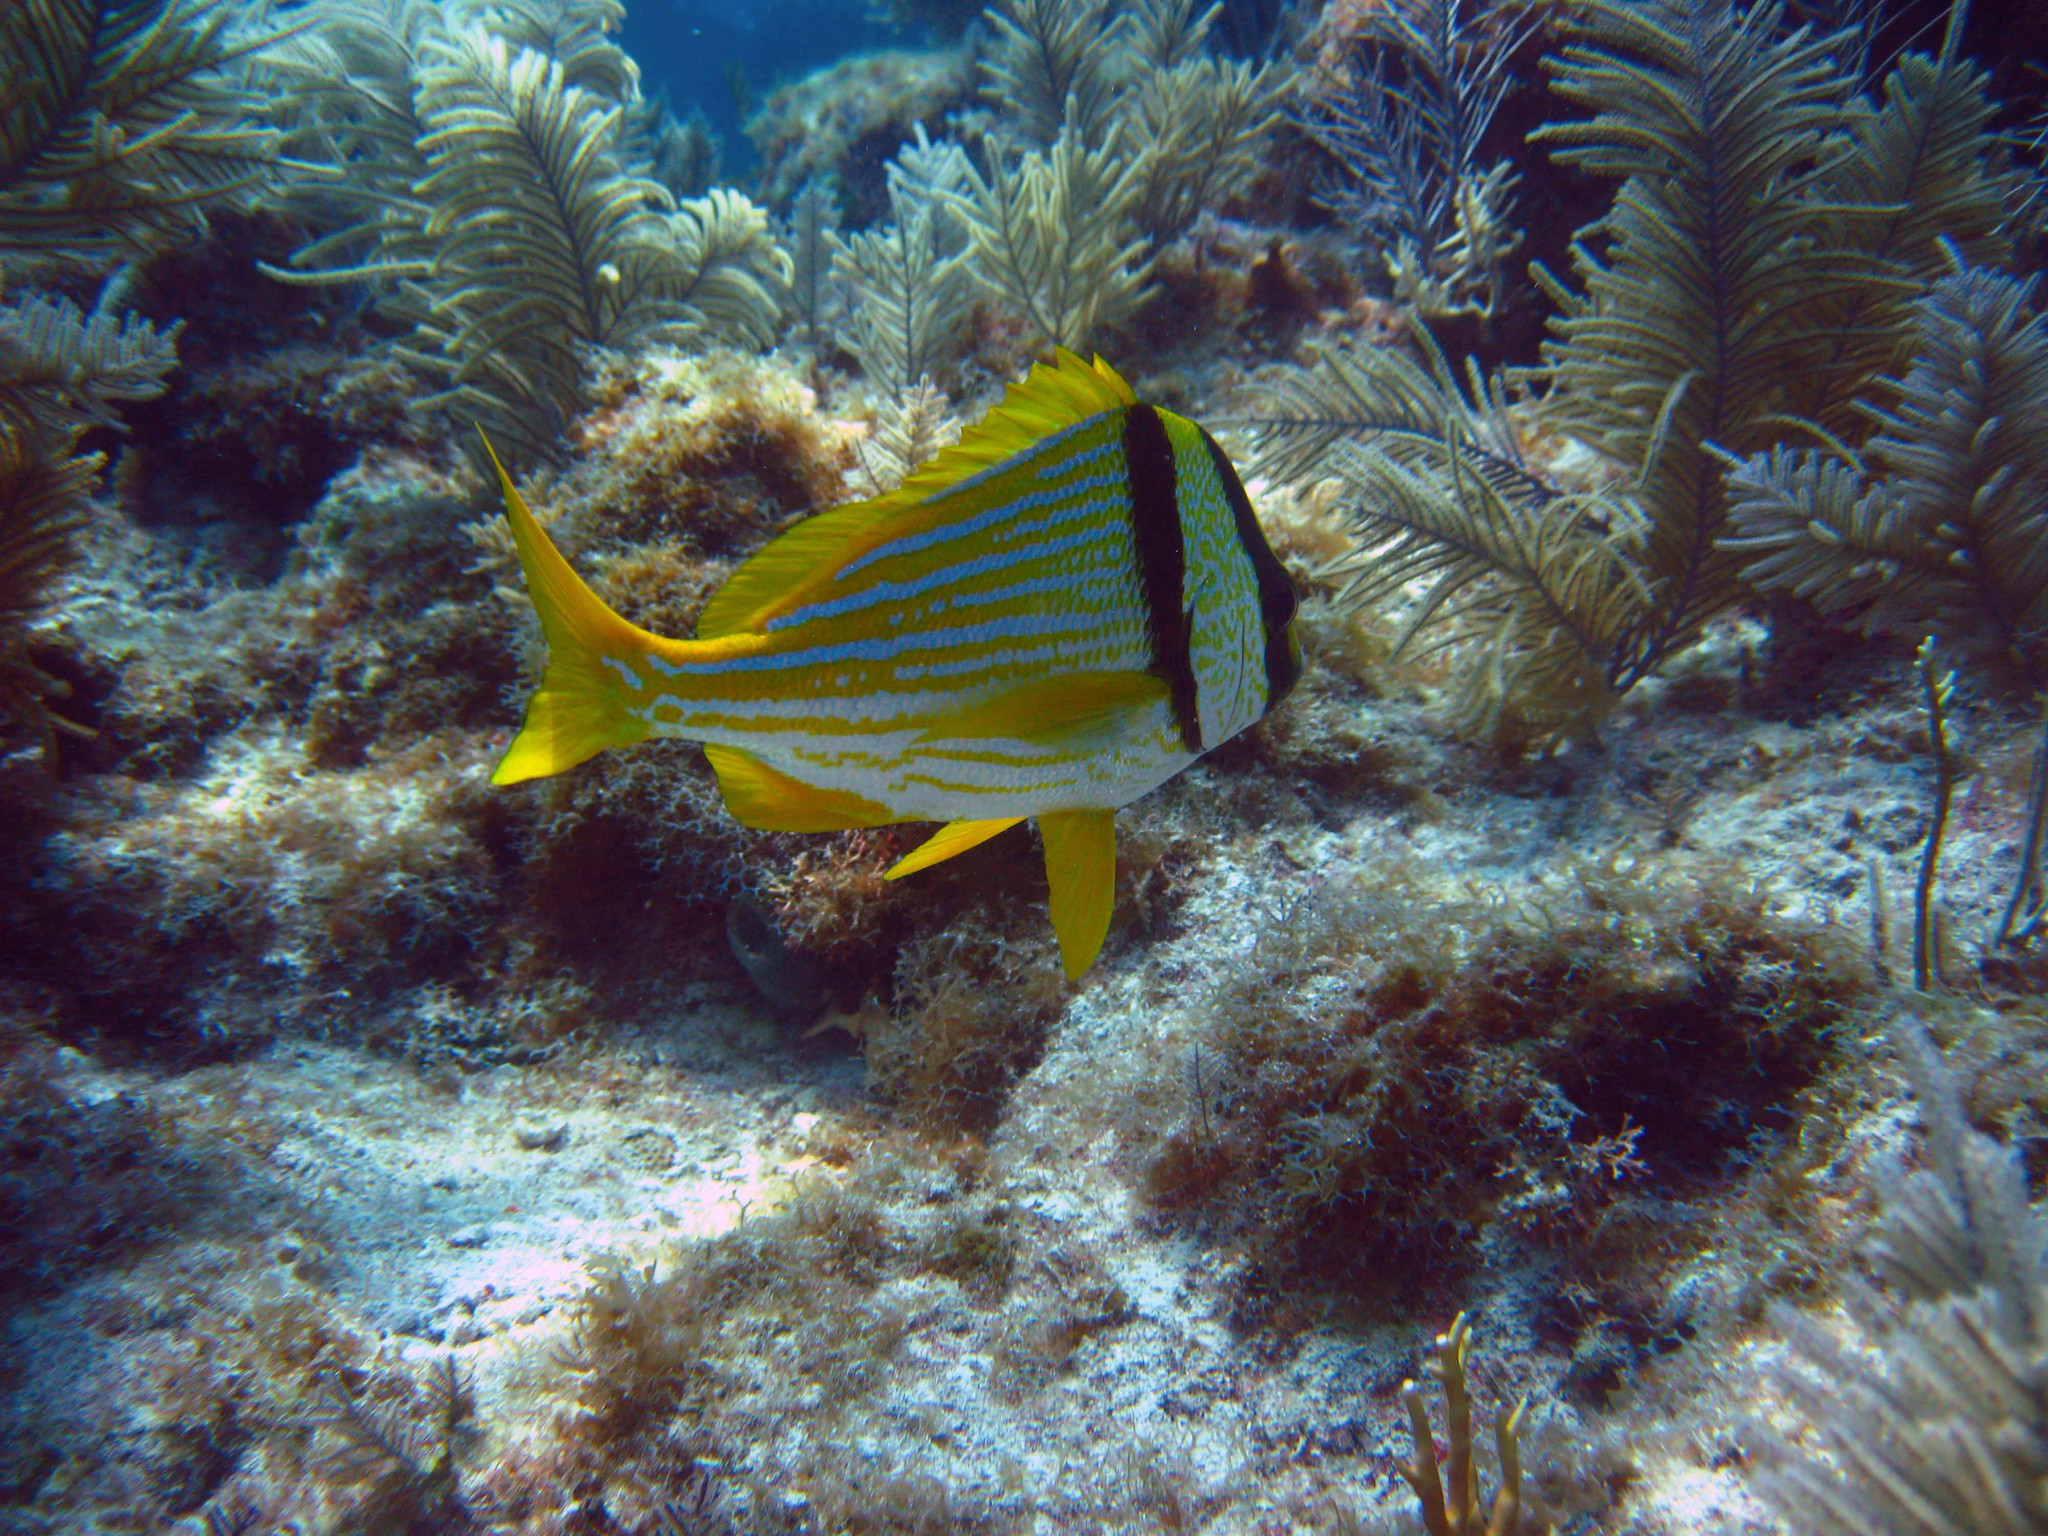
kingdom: Animalia
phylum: Chordata
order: Perciformes
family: Haemulidae
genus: Anisotremus
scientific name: Anisotremus virginicus
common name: Porkfish
